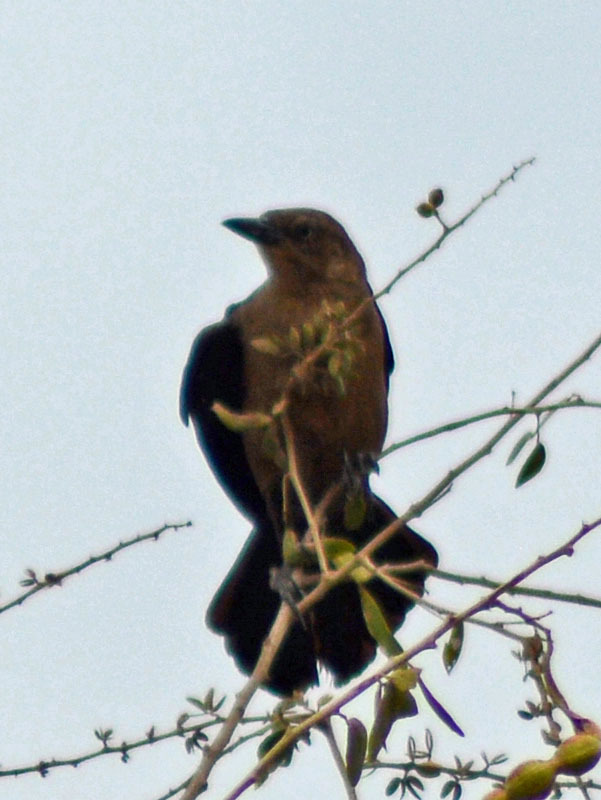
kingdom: Animalia
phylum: Chordata
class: Aves
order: Passeriformes
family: Icteridae
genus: Quiscalus
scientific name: Quiscalus mexicanus
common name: Great-tailed grackle
